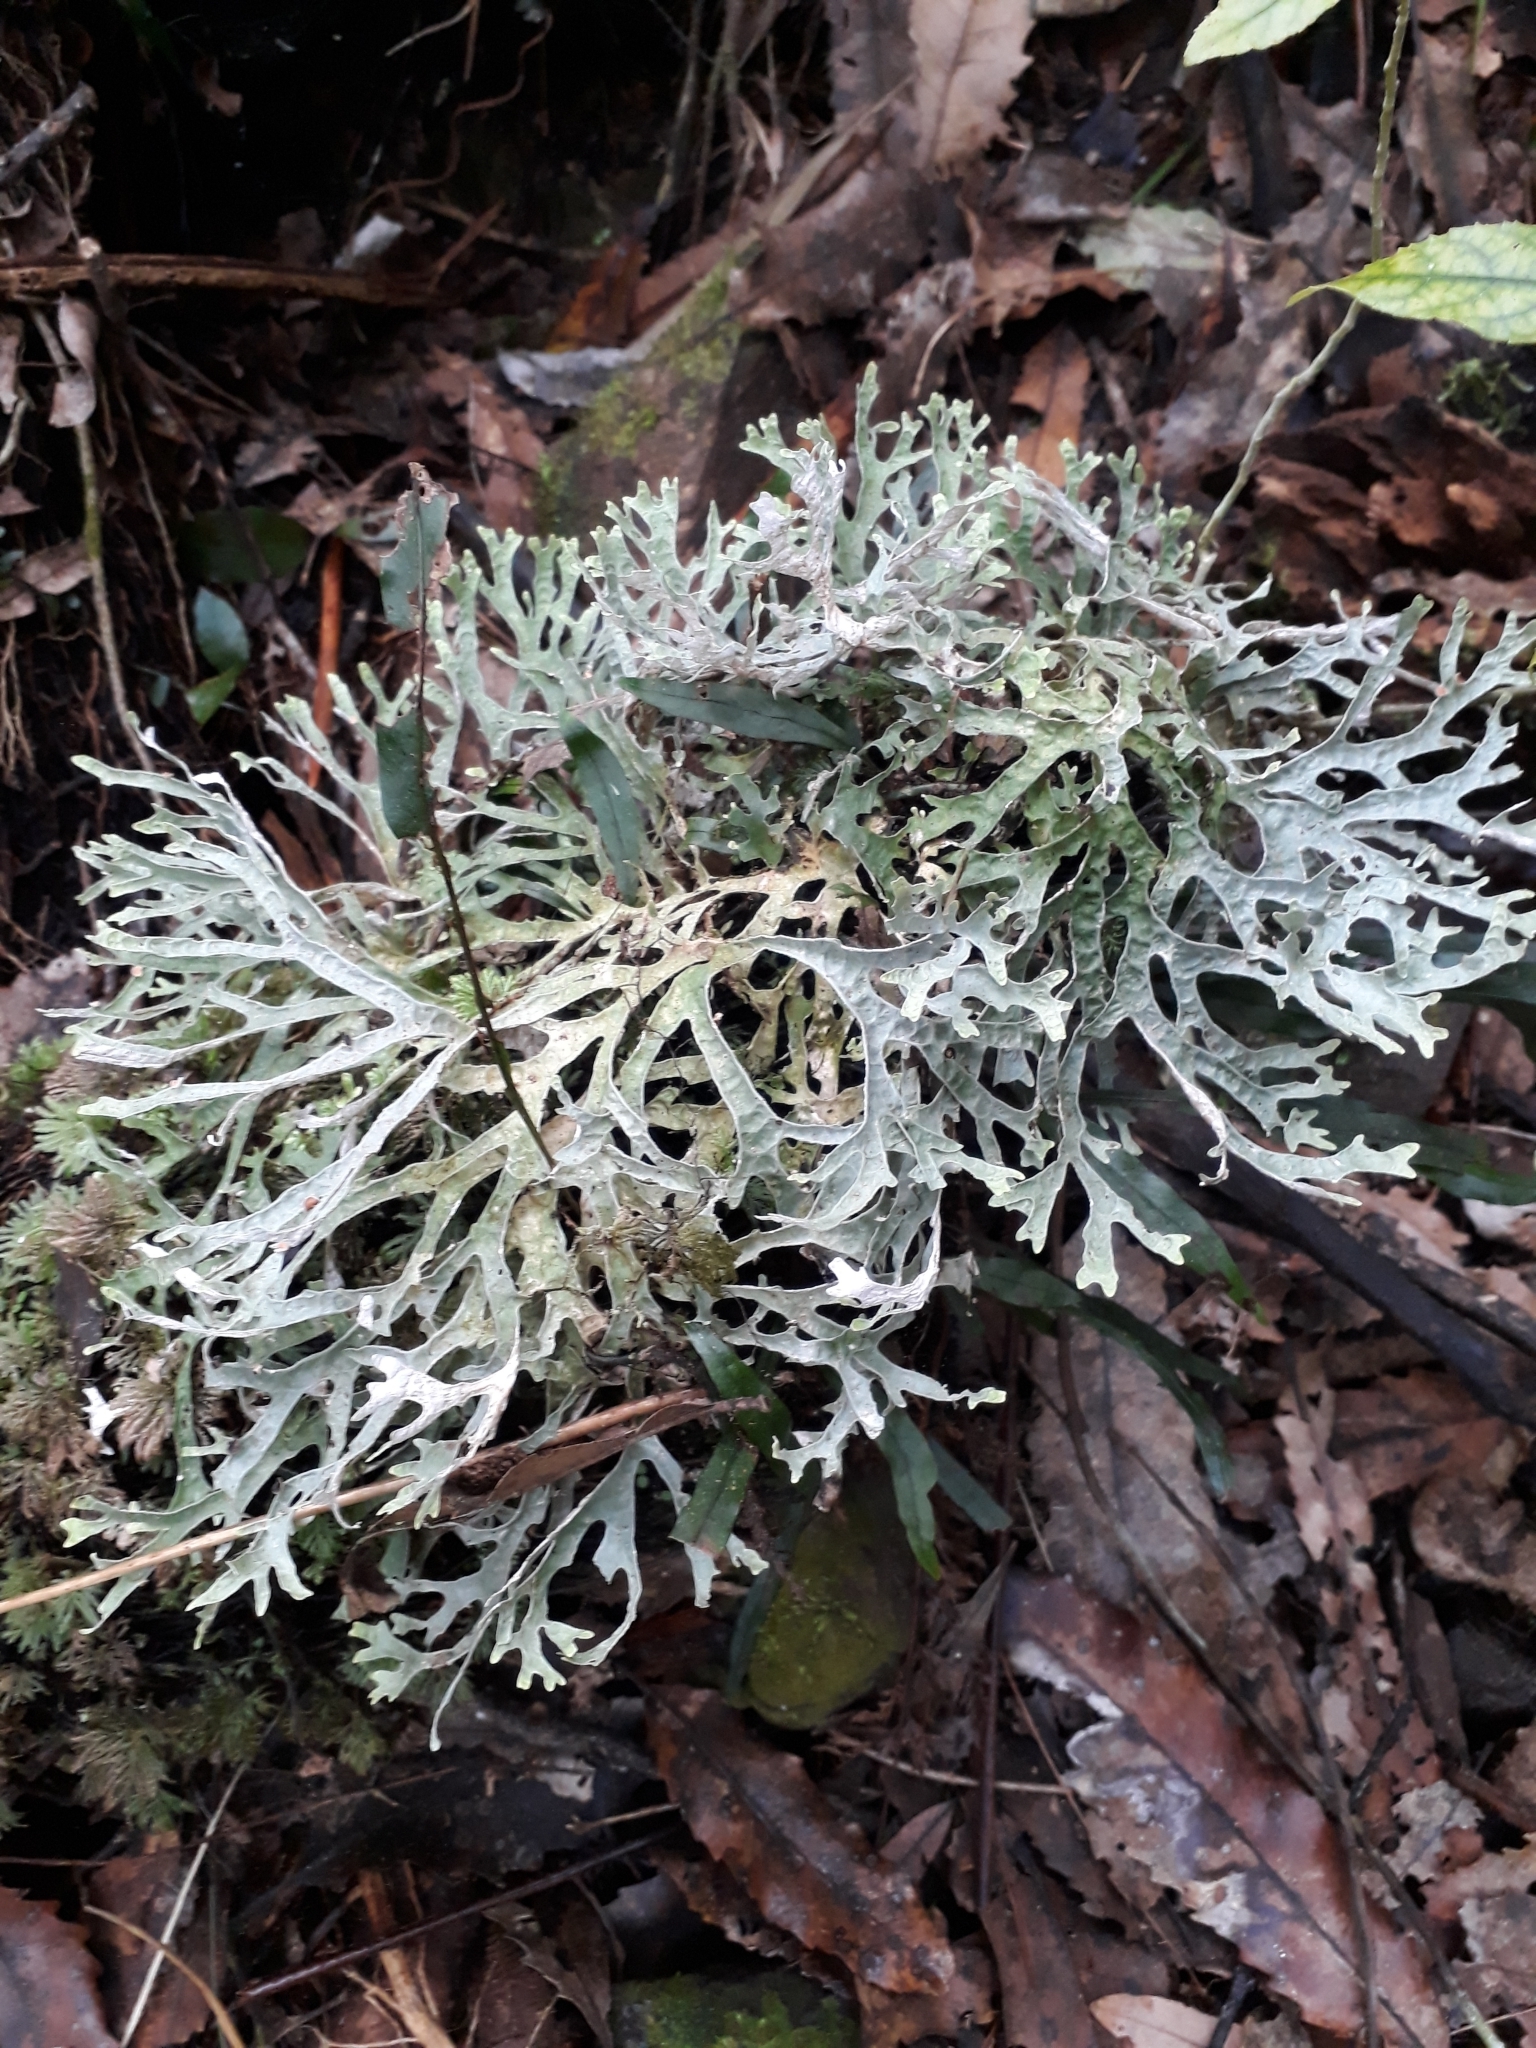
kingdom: Fungi
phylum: Ascomycota
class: Lecanoromycetes
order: Peltigerales
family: Lobariaceae
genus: Pseudocyphellaria
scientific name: Pseudocyphellaria rufovirescens
